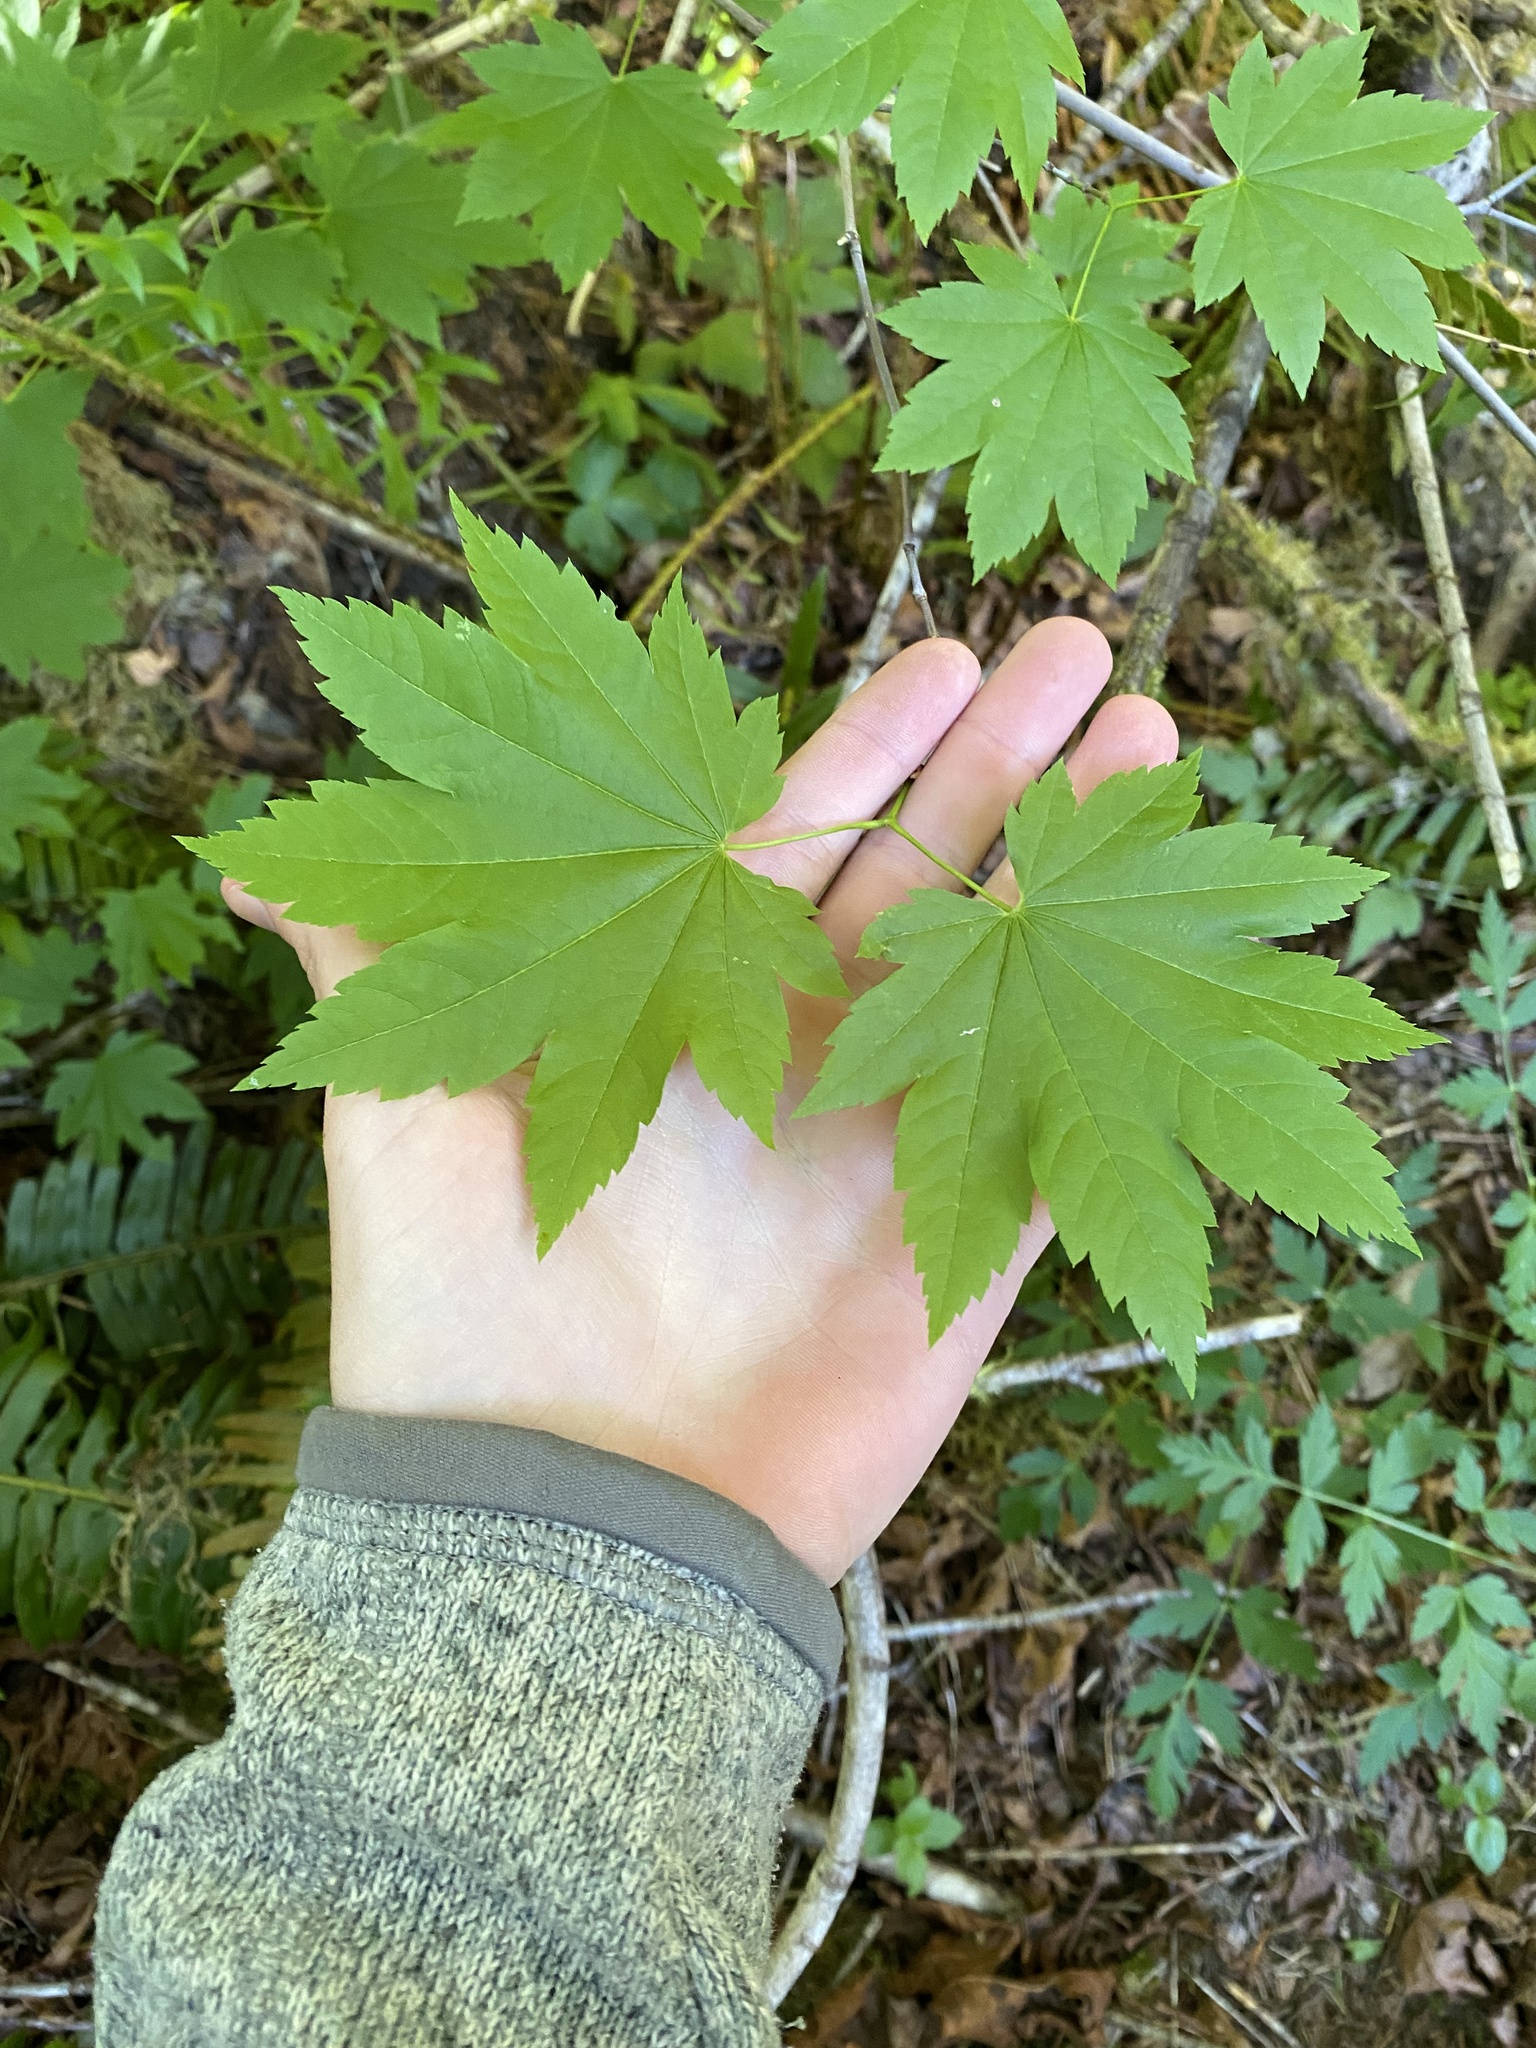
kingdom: Plantae
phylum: Tracheophyta
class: Magnoliopsida
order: Sapindales
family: Sapindaceae
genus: Acer
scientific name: Acer circinatum
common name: Vine maple
